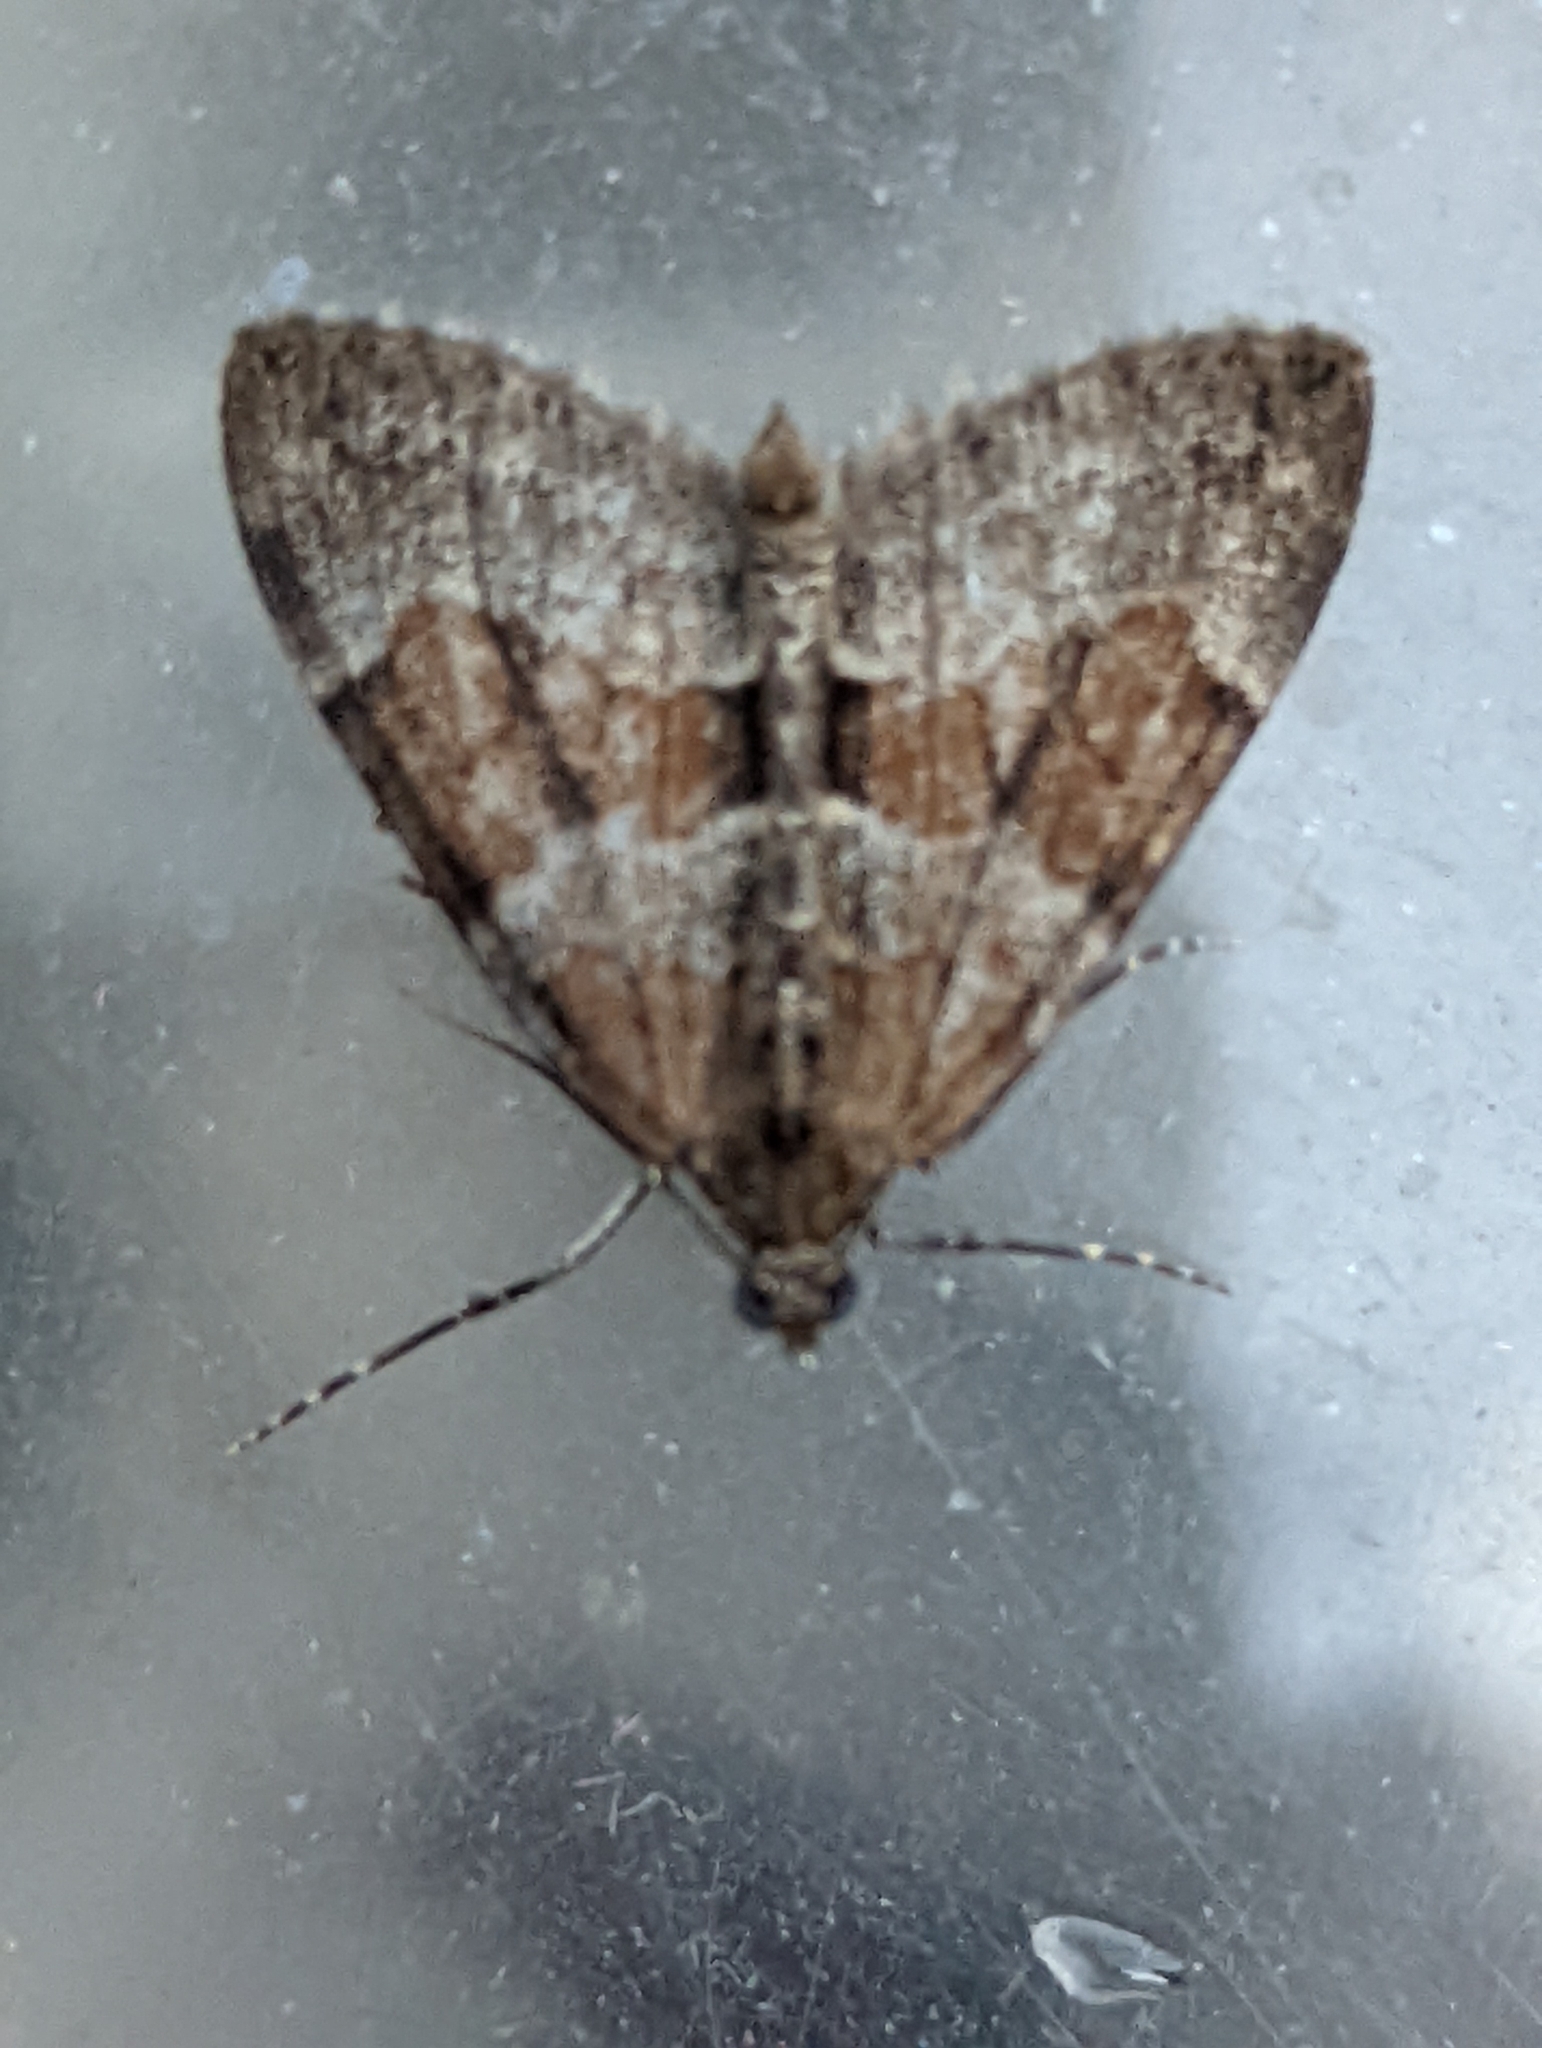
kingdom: Animalia
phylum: Arthropoda
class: Insecta
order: Lepidoptera
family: Geometridae
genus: Thera
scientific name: Thera obeliscata
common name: Grey pine carpet
